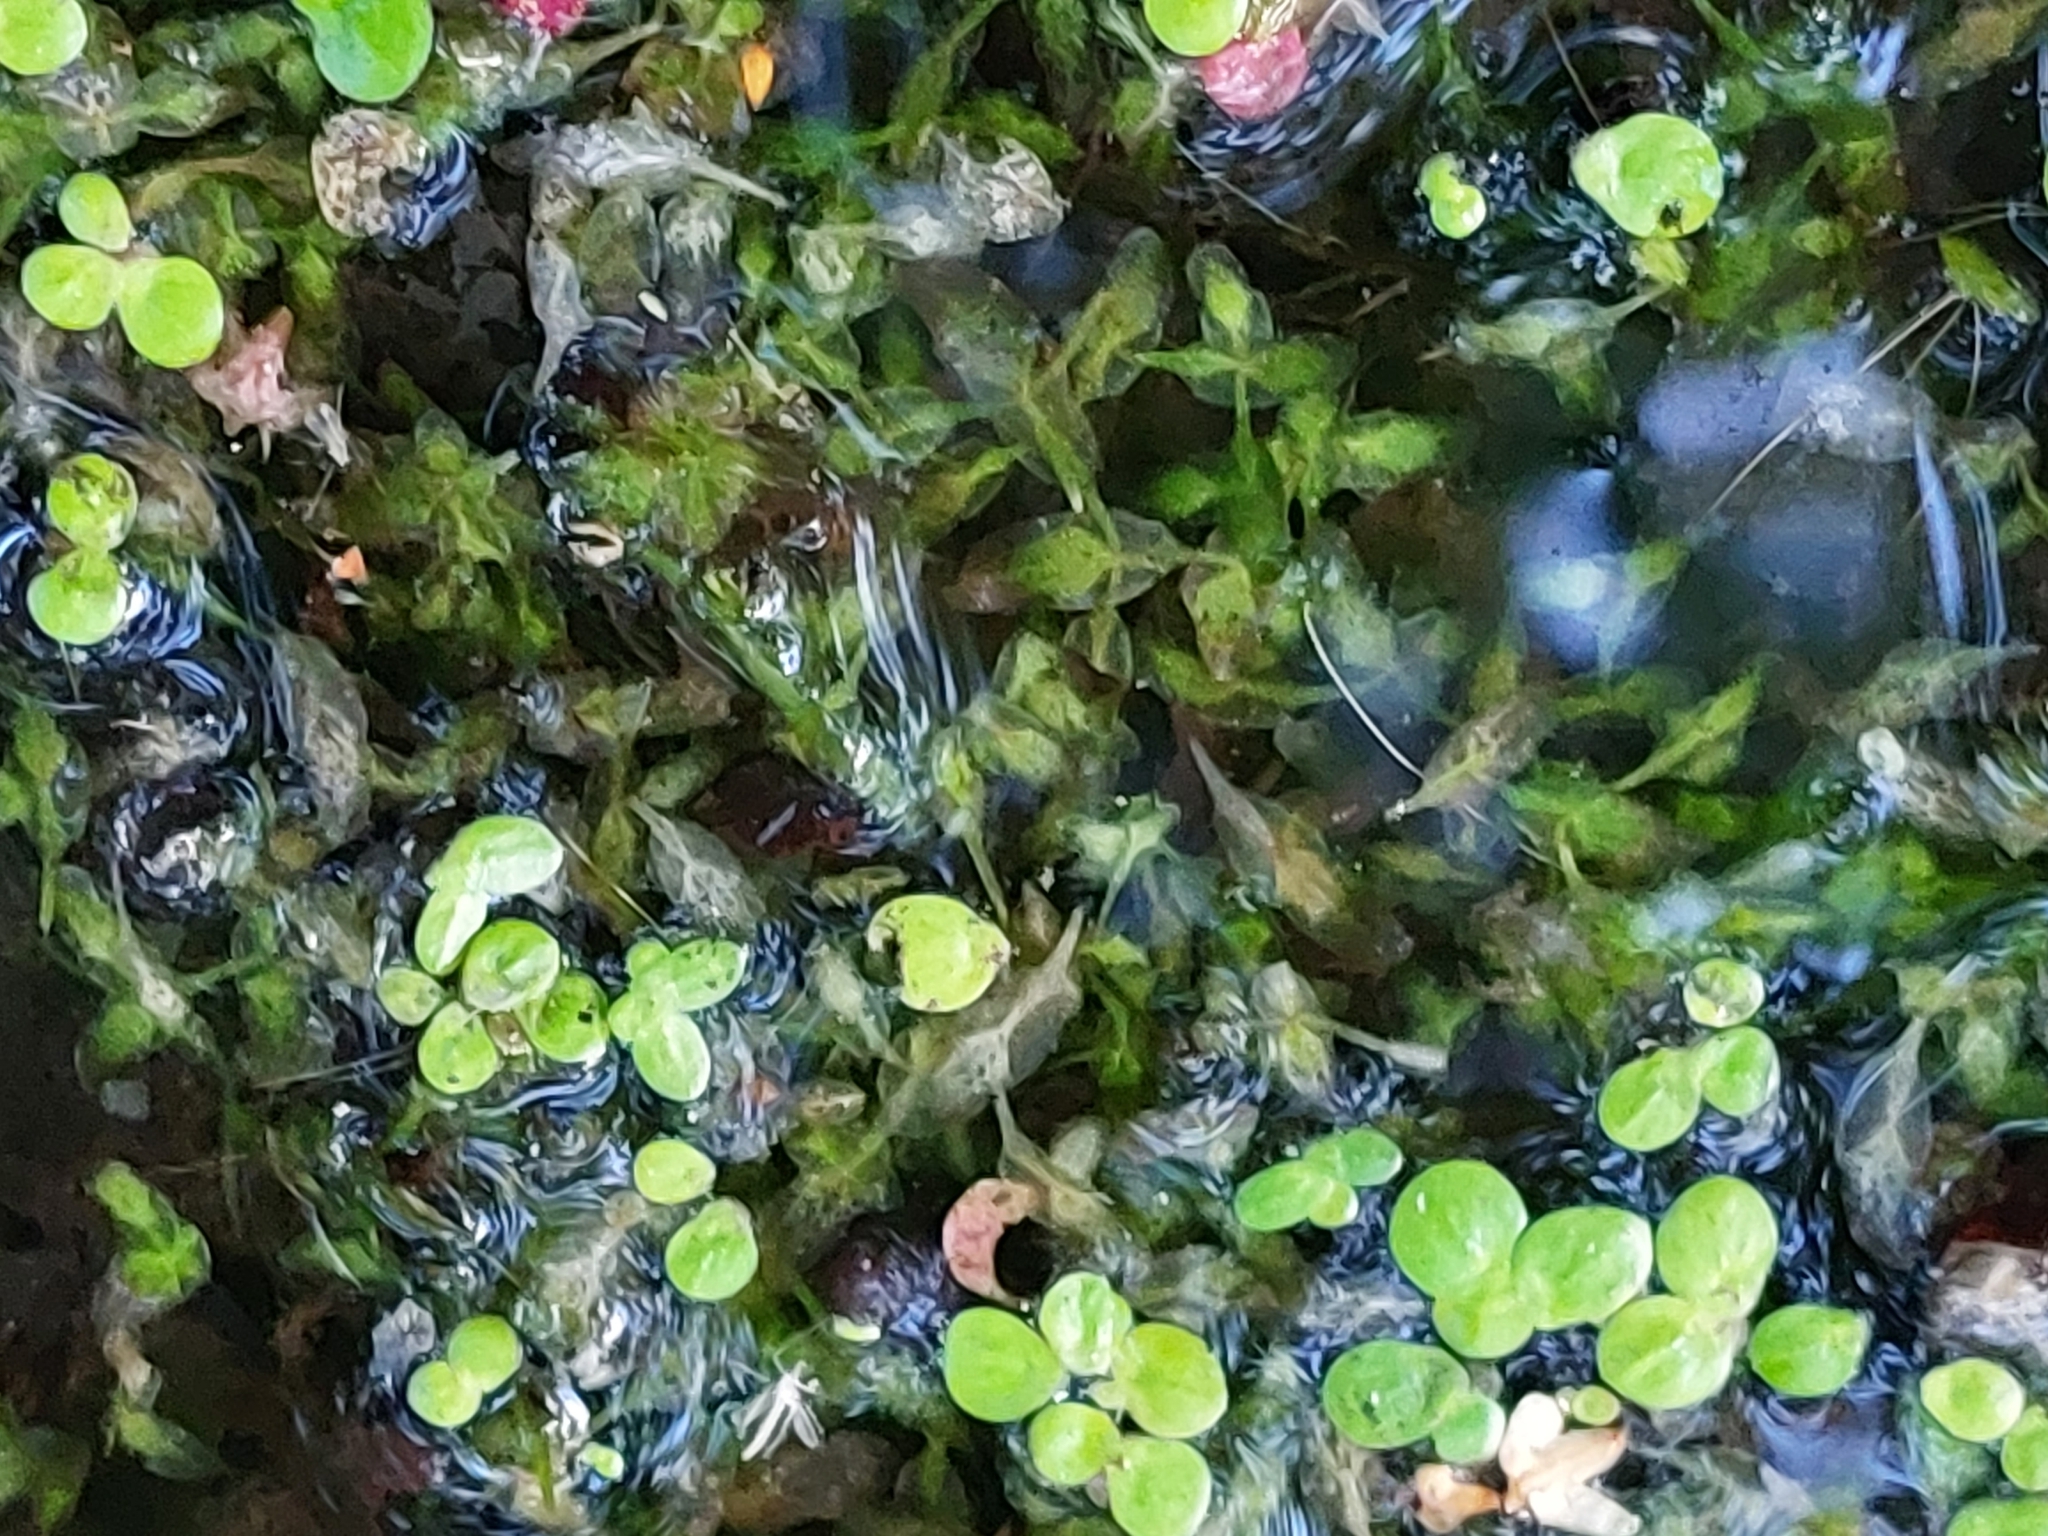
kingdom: Plantae
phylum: Tracheophyta
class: Liliopsida
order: Alismatales
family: Araceae
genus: Lemna
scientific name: Lemna trisulca
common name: Ivy-leaved duckweed
